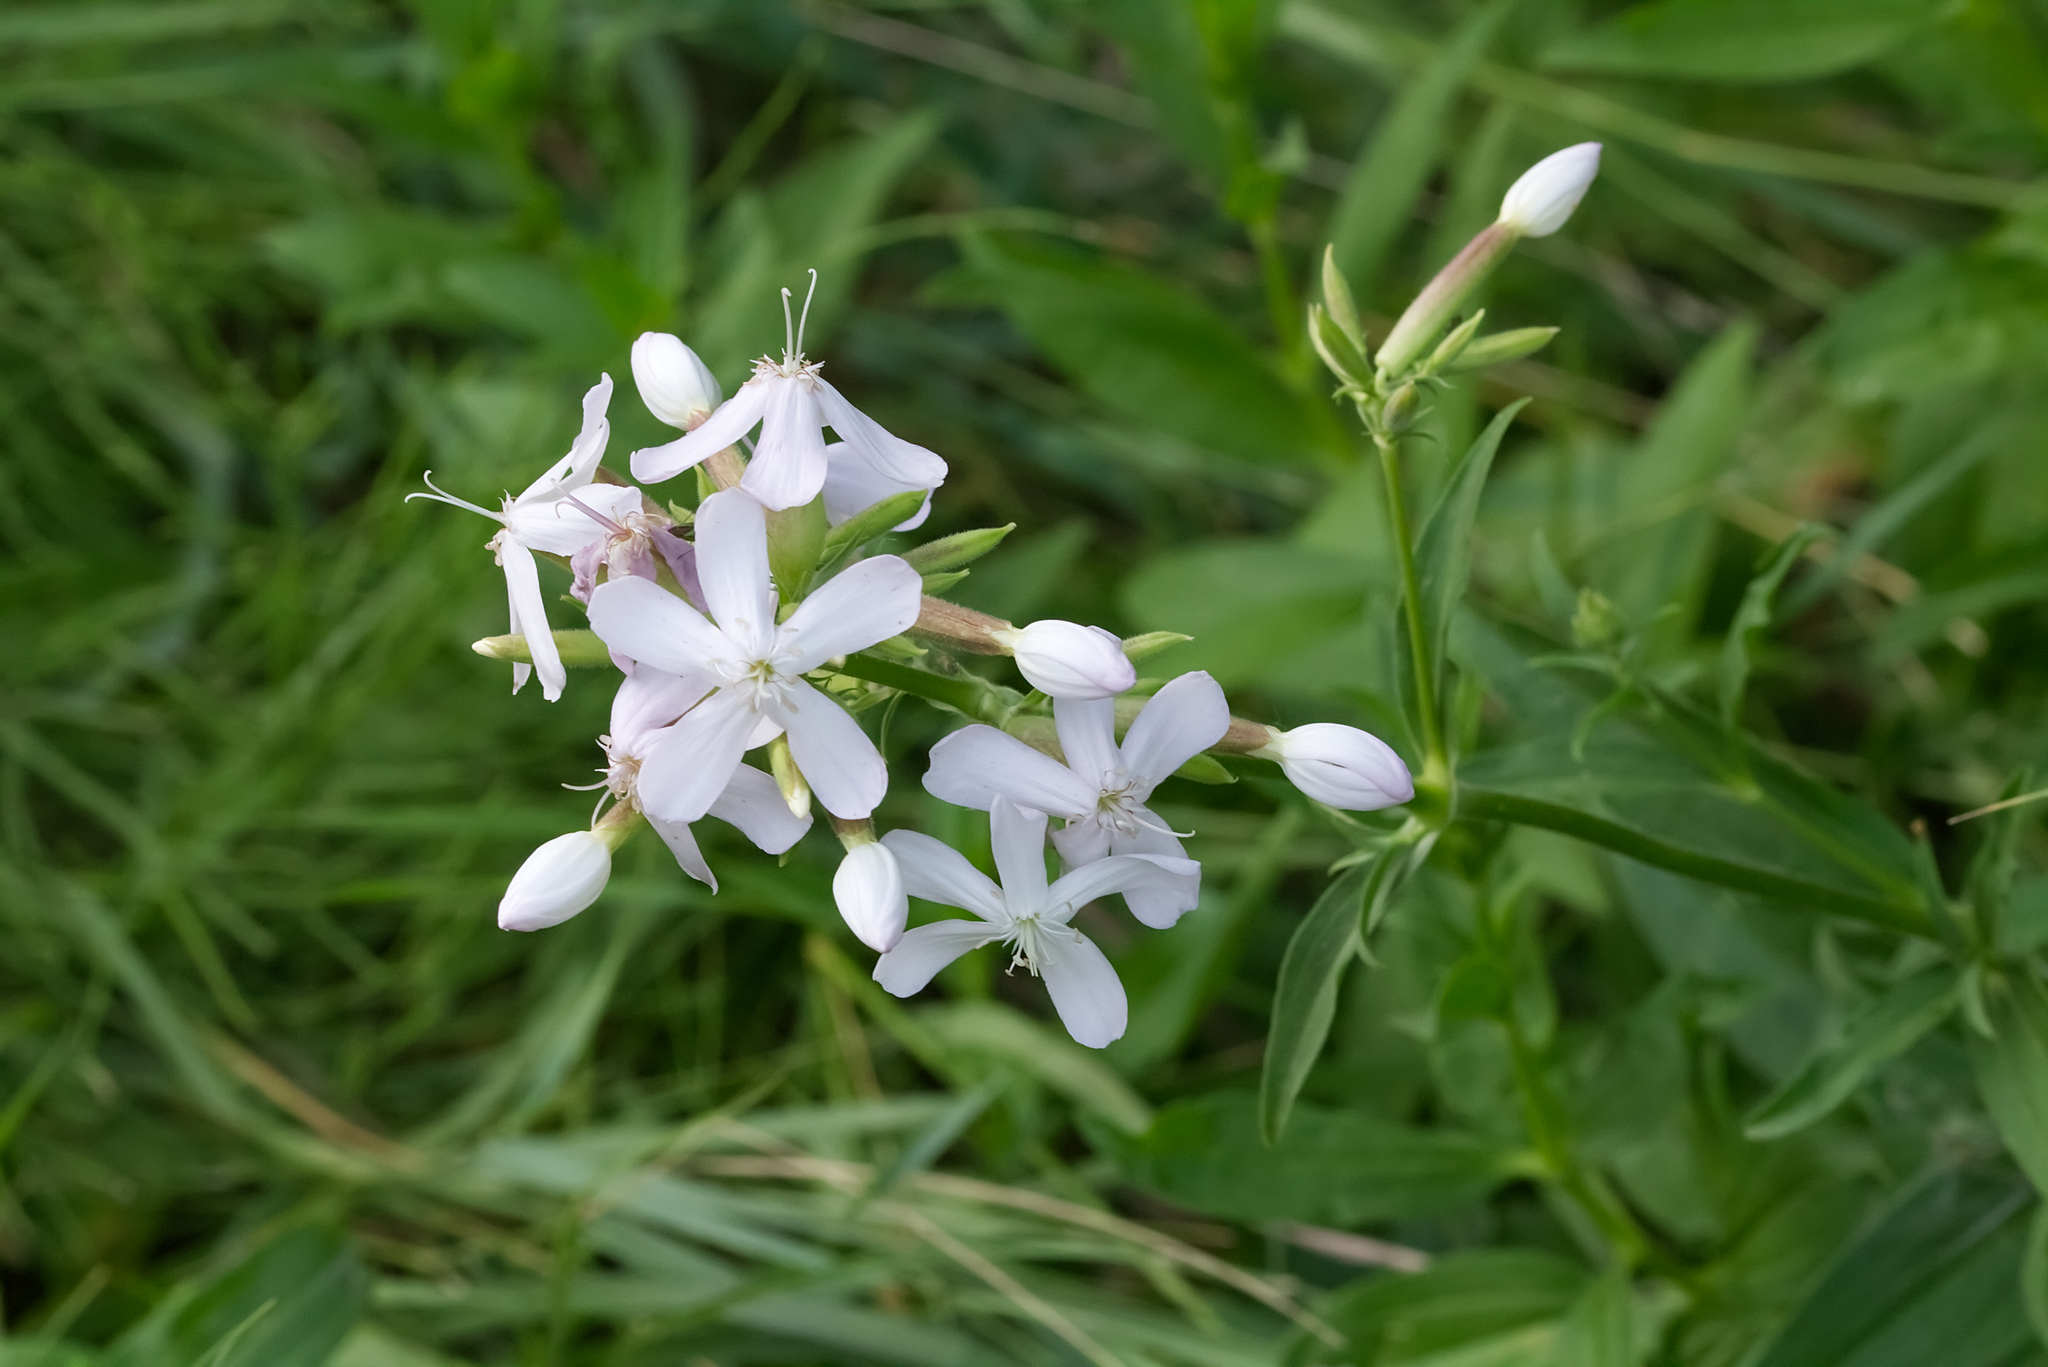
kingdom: Plantae
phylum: Tracheophyta
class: Magnoliopsida
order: Caryophyllales
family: Caryophyllaceae
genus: Saponaria
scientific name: Saponaria officinalis
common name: Soapwort
